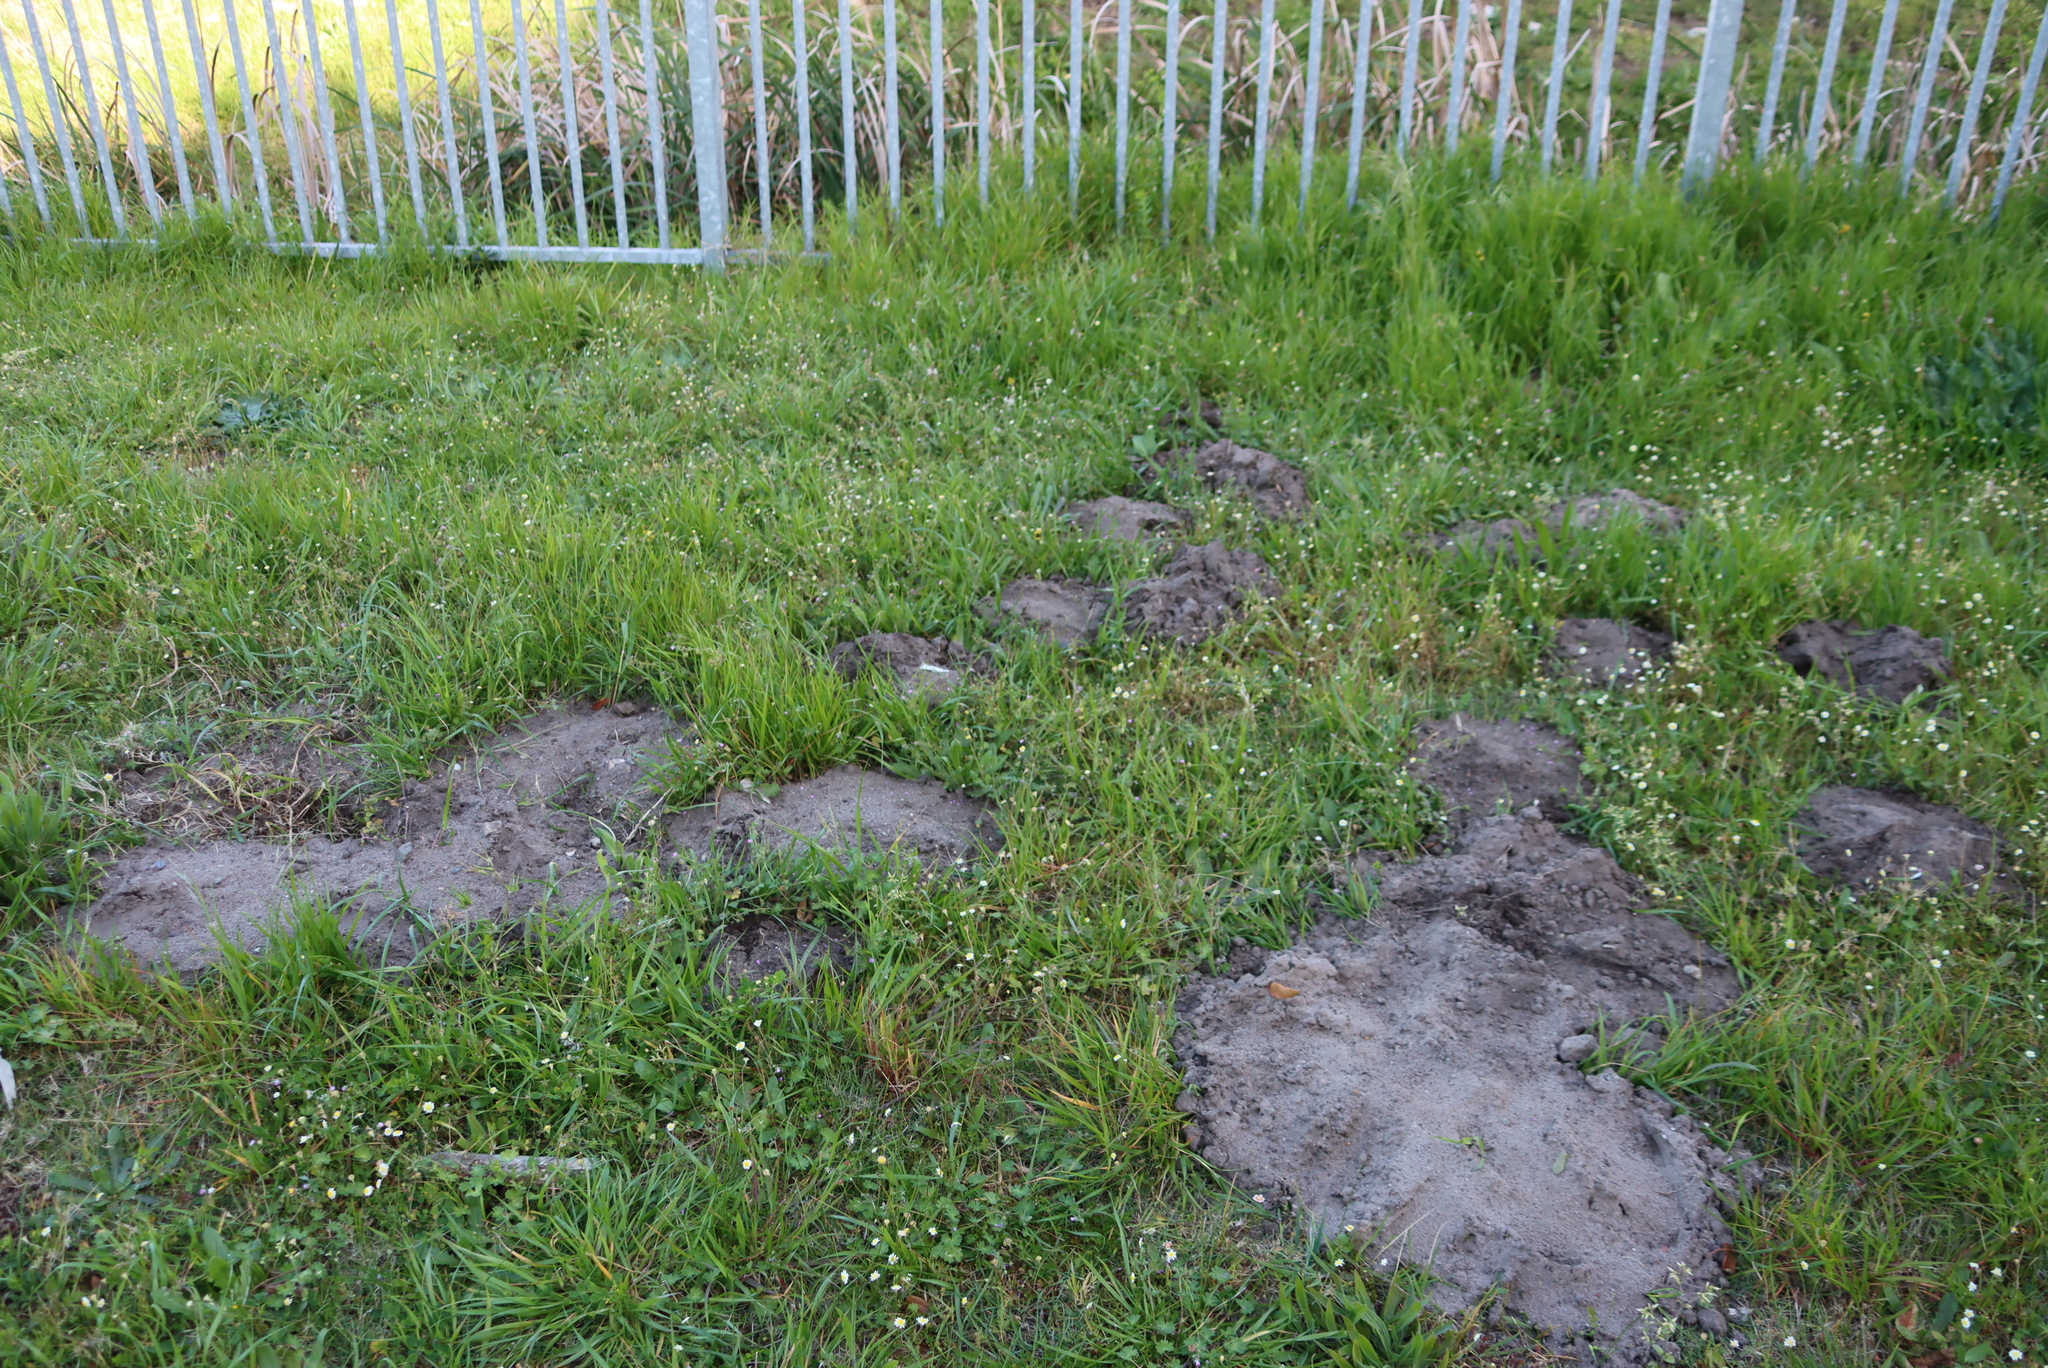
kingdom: Animalia
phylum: Chordata
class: Mammalia
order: Rodentia
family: Bathyergidae
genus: Bathyergus
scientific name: Bathyergus suillus
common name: Cape dune mole rat
